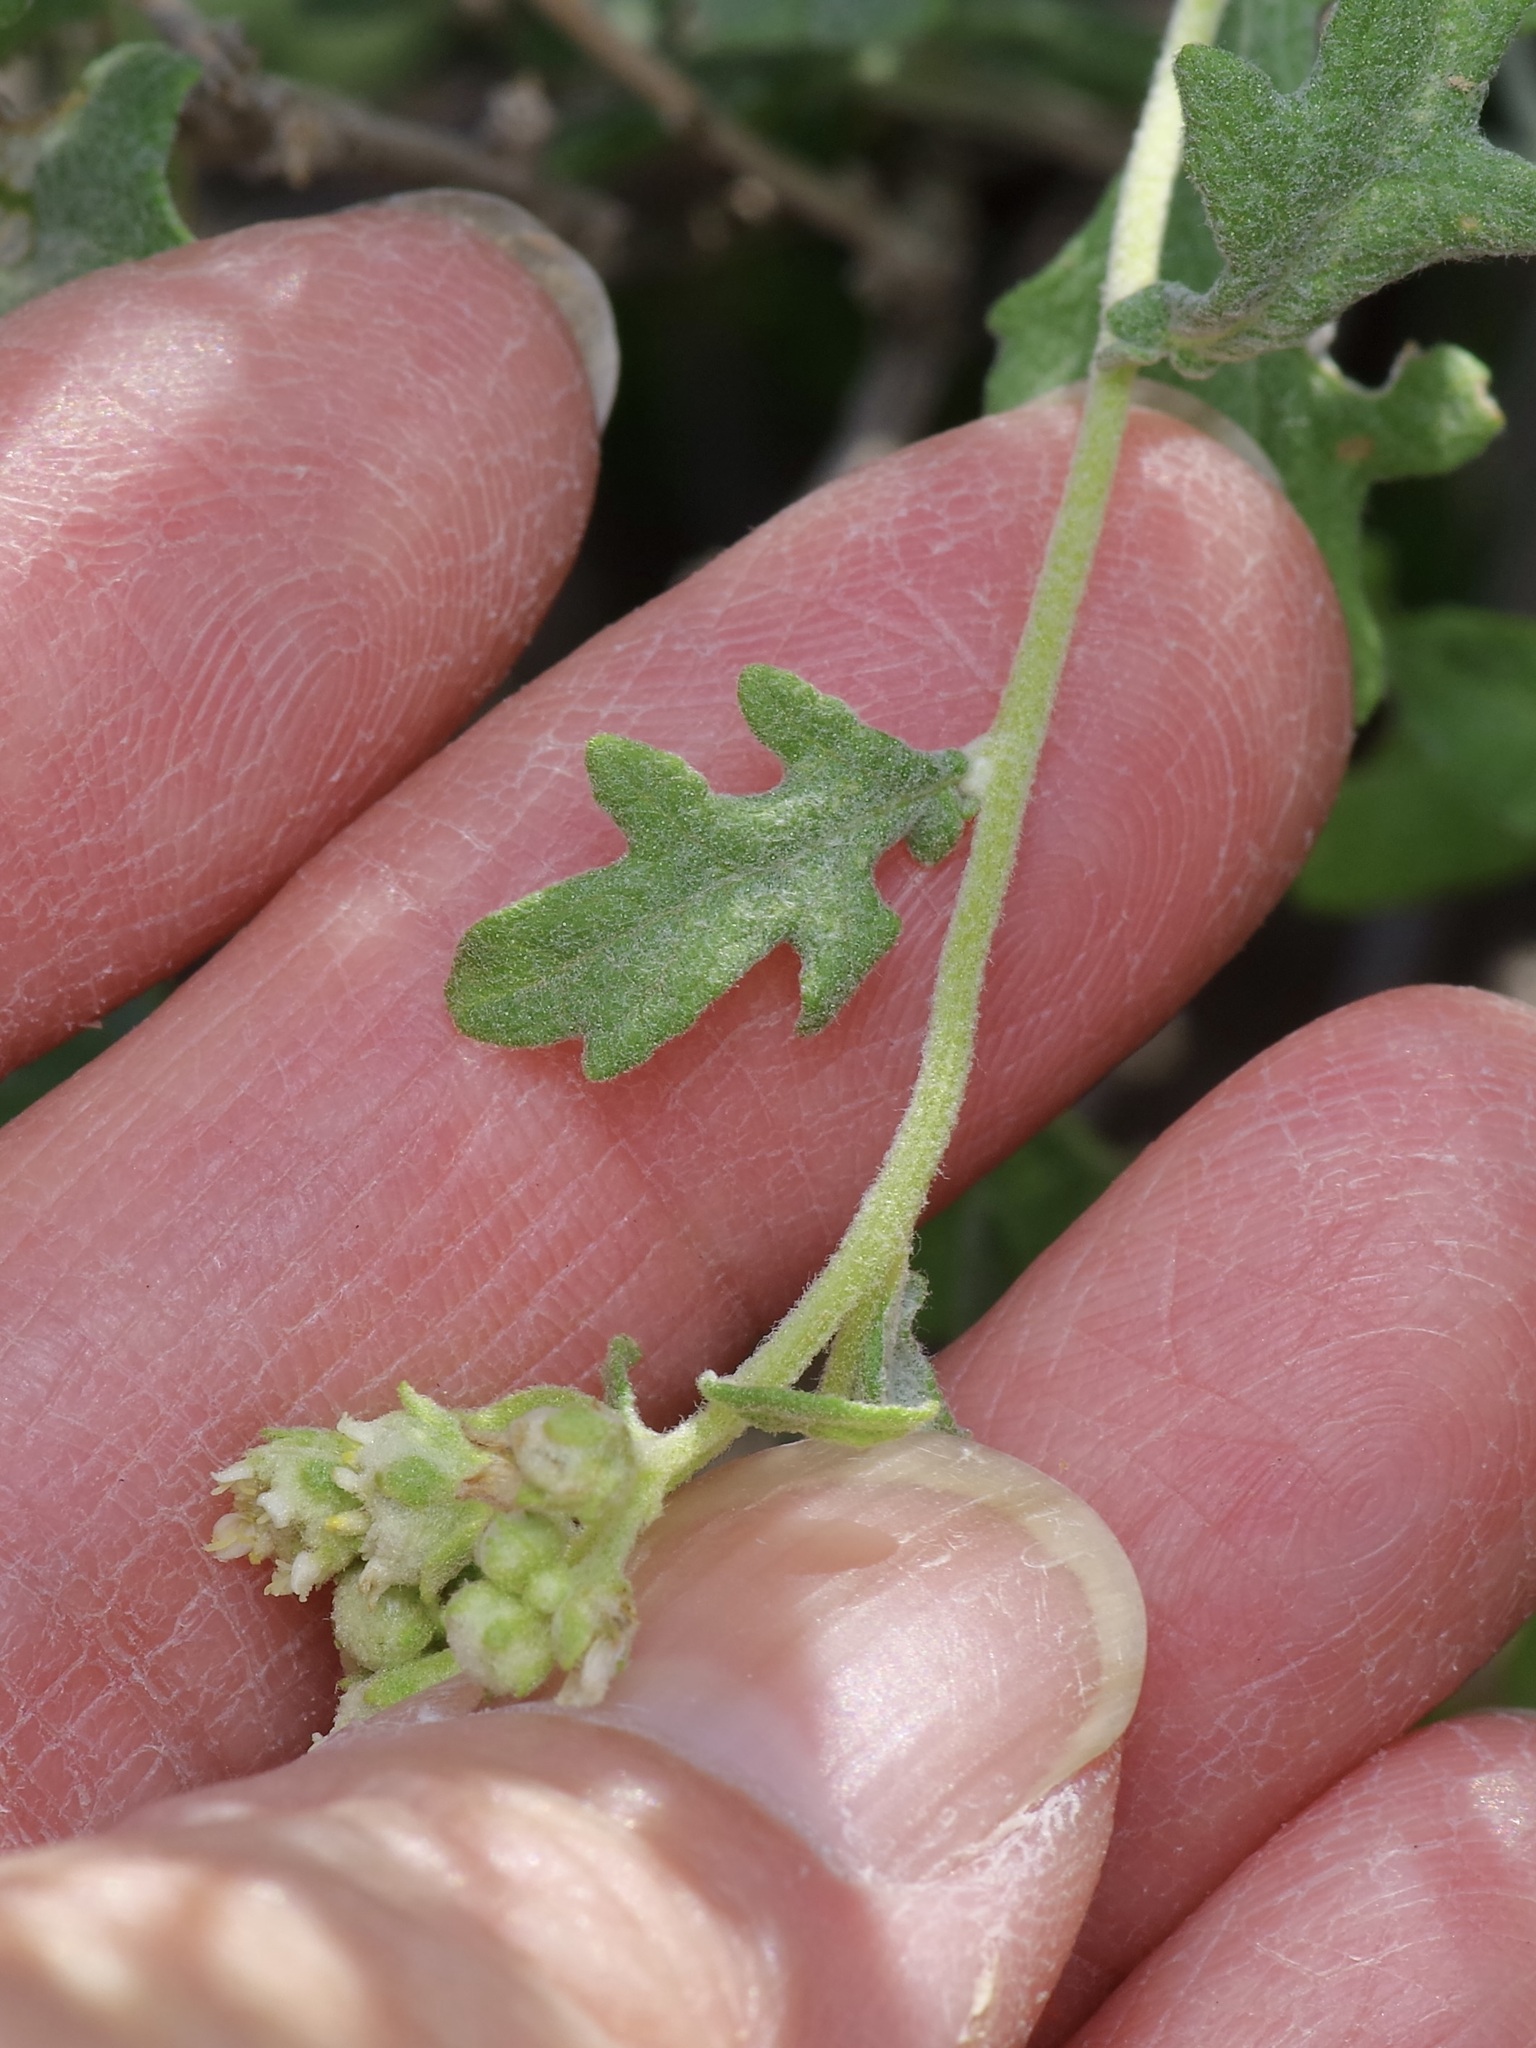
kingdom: Plantae
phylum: Tracheophyta
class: Magnoliopsida
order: Asterales
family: Asteraceae
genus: Parthenium
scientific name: Parthenium incanum
